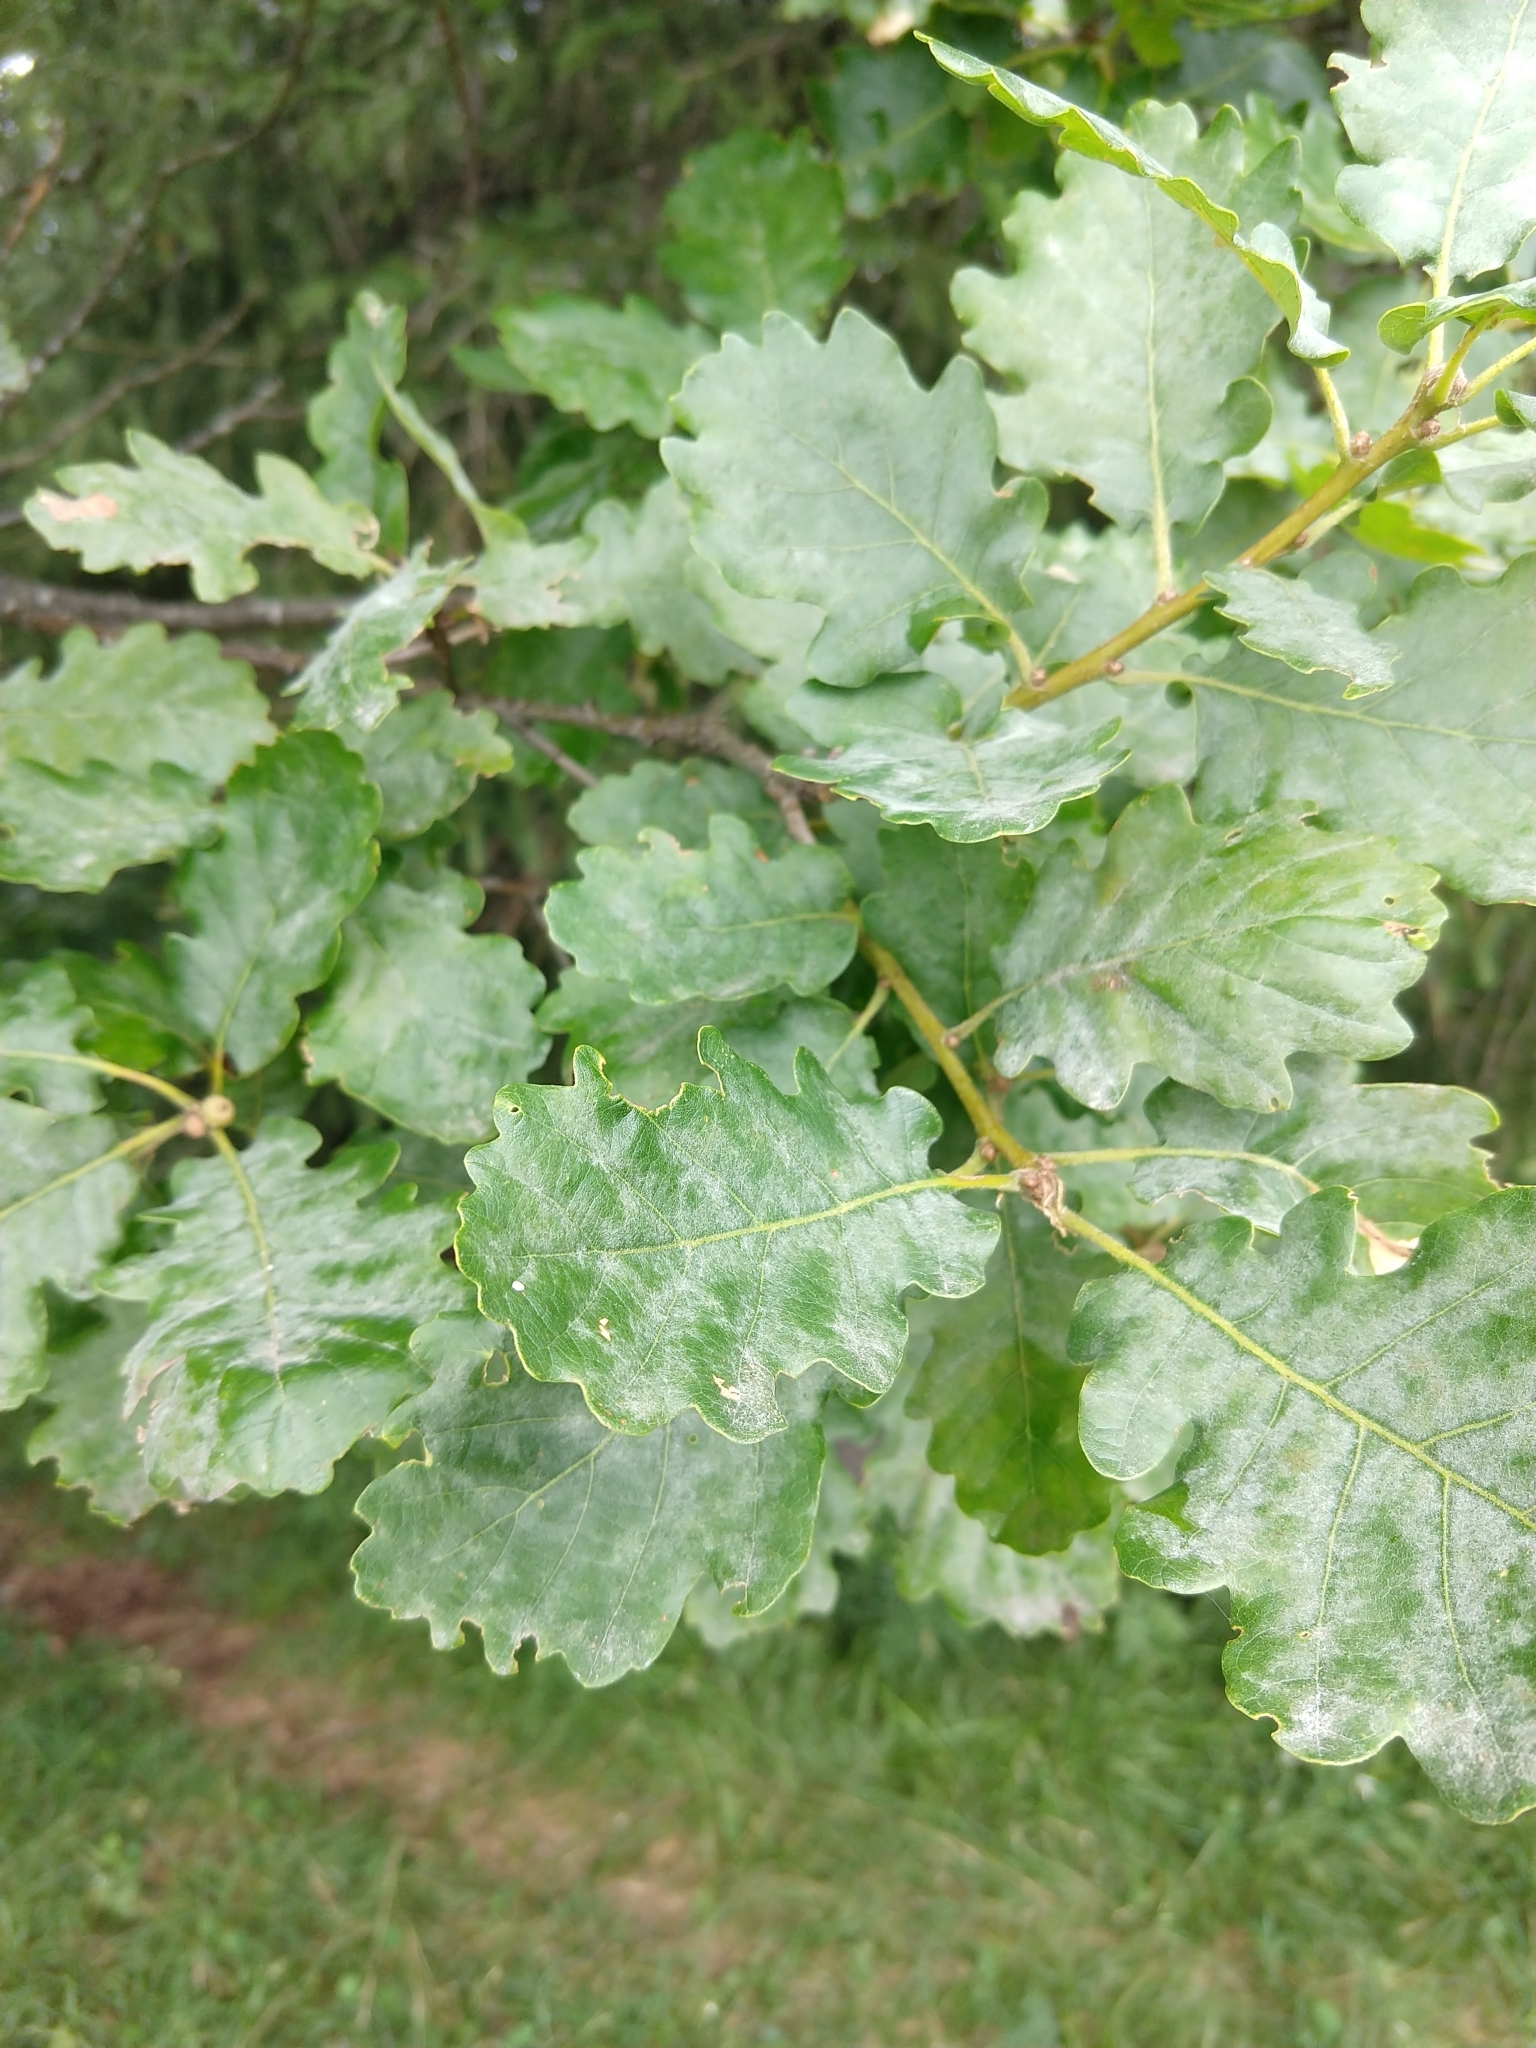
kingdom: Plantae
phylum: Tracheophyta
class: Magnoliopsida
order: Fagales
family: Fagaceae
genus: Quercus
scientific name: Quercus petraea
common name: Sessile oak
